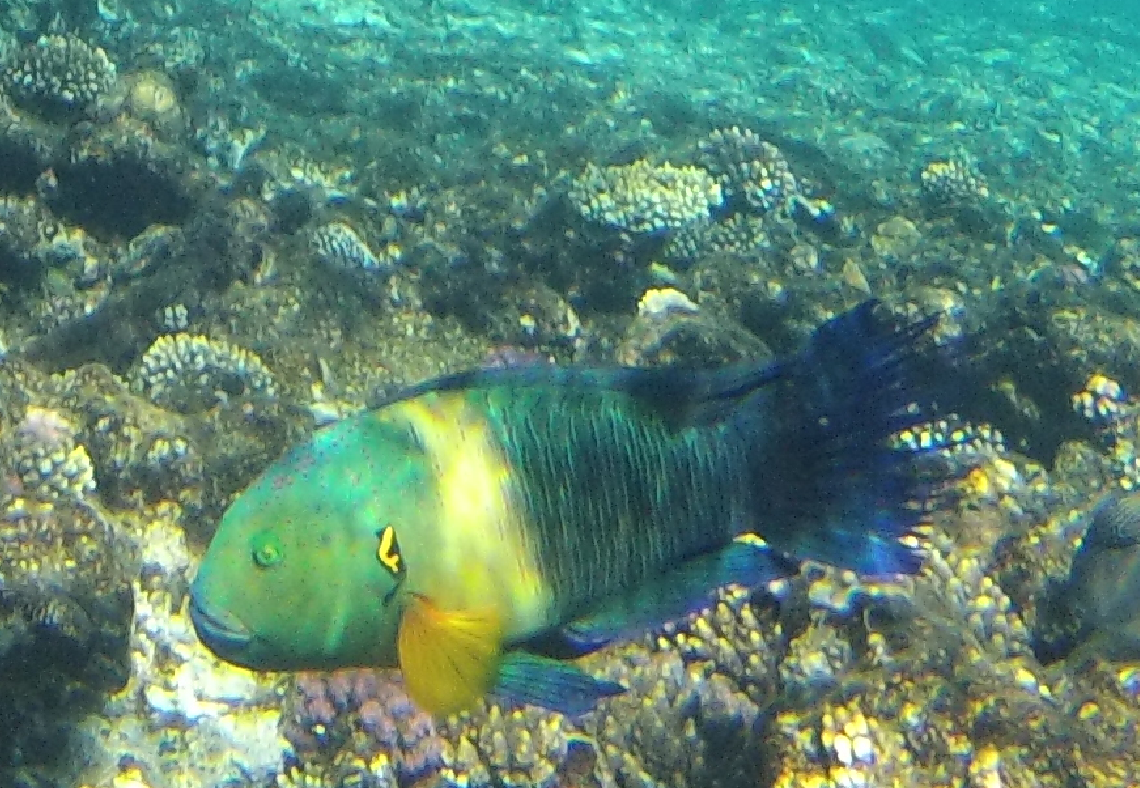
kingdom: Animalia
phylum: Chordata
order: Perciformes
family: Labridae
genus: Cheilinus
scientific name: Cheilinus lunulatus
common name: Broomtail wrasse
